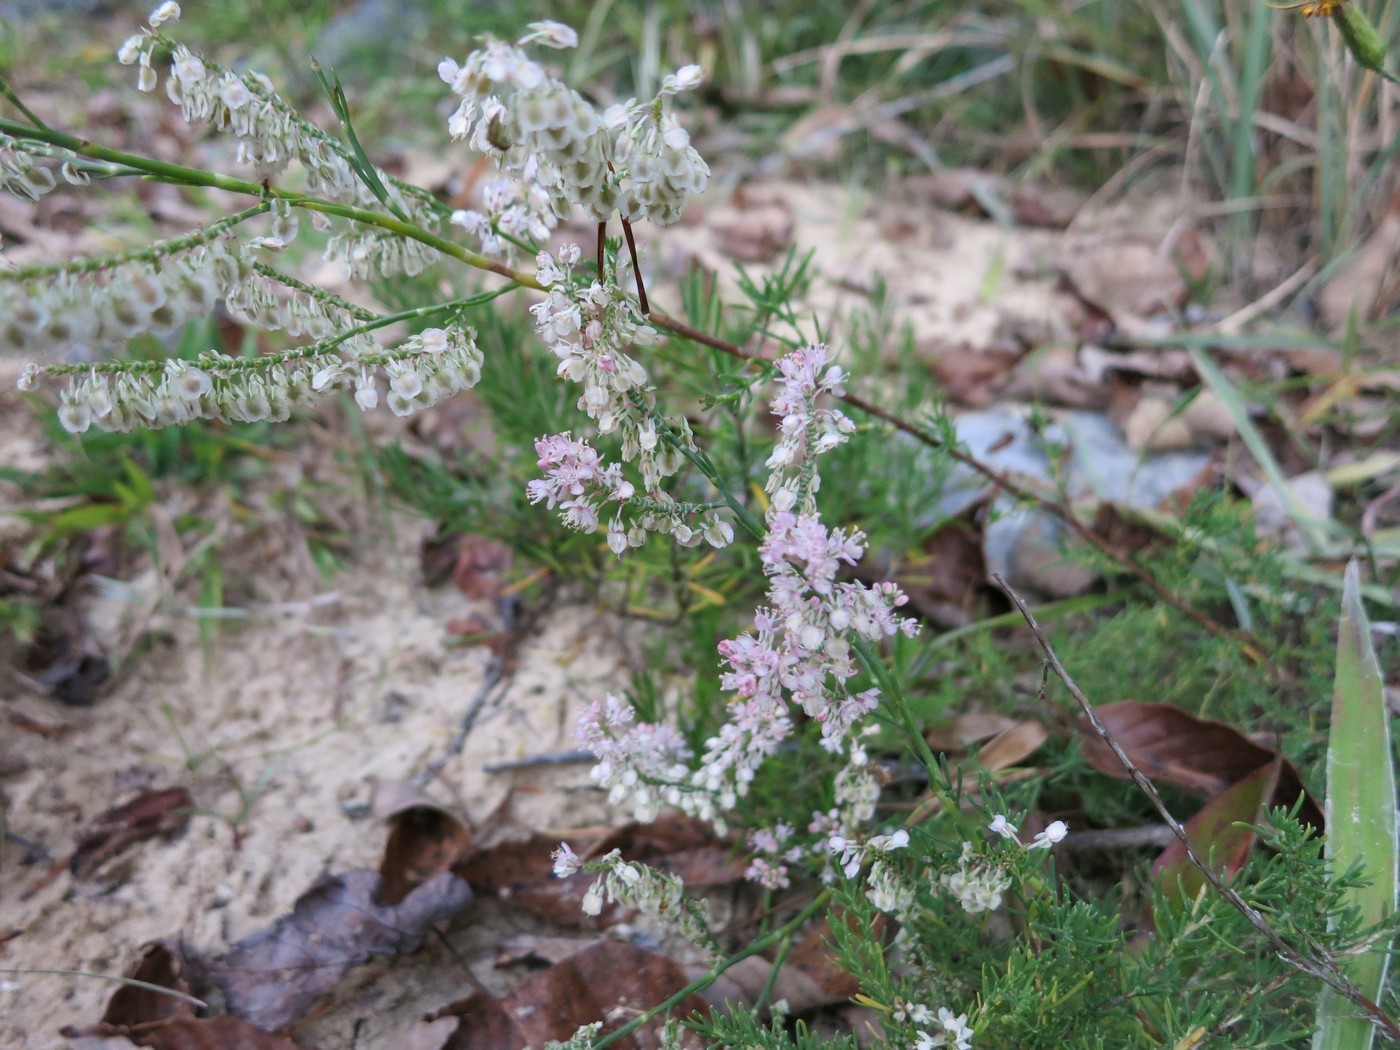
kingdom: Plantae
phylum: Tracheophyta
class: Magnoliopsida
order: Caryophyllales
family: Polygonaceae
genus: Polygonella
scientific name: Polygonella americana
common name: Southern jointweed
